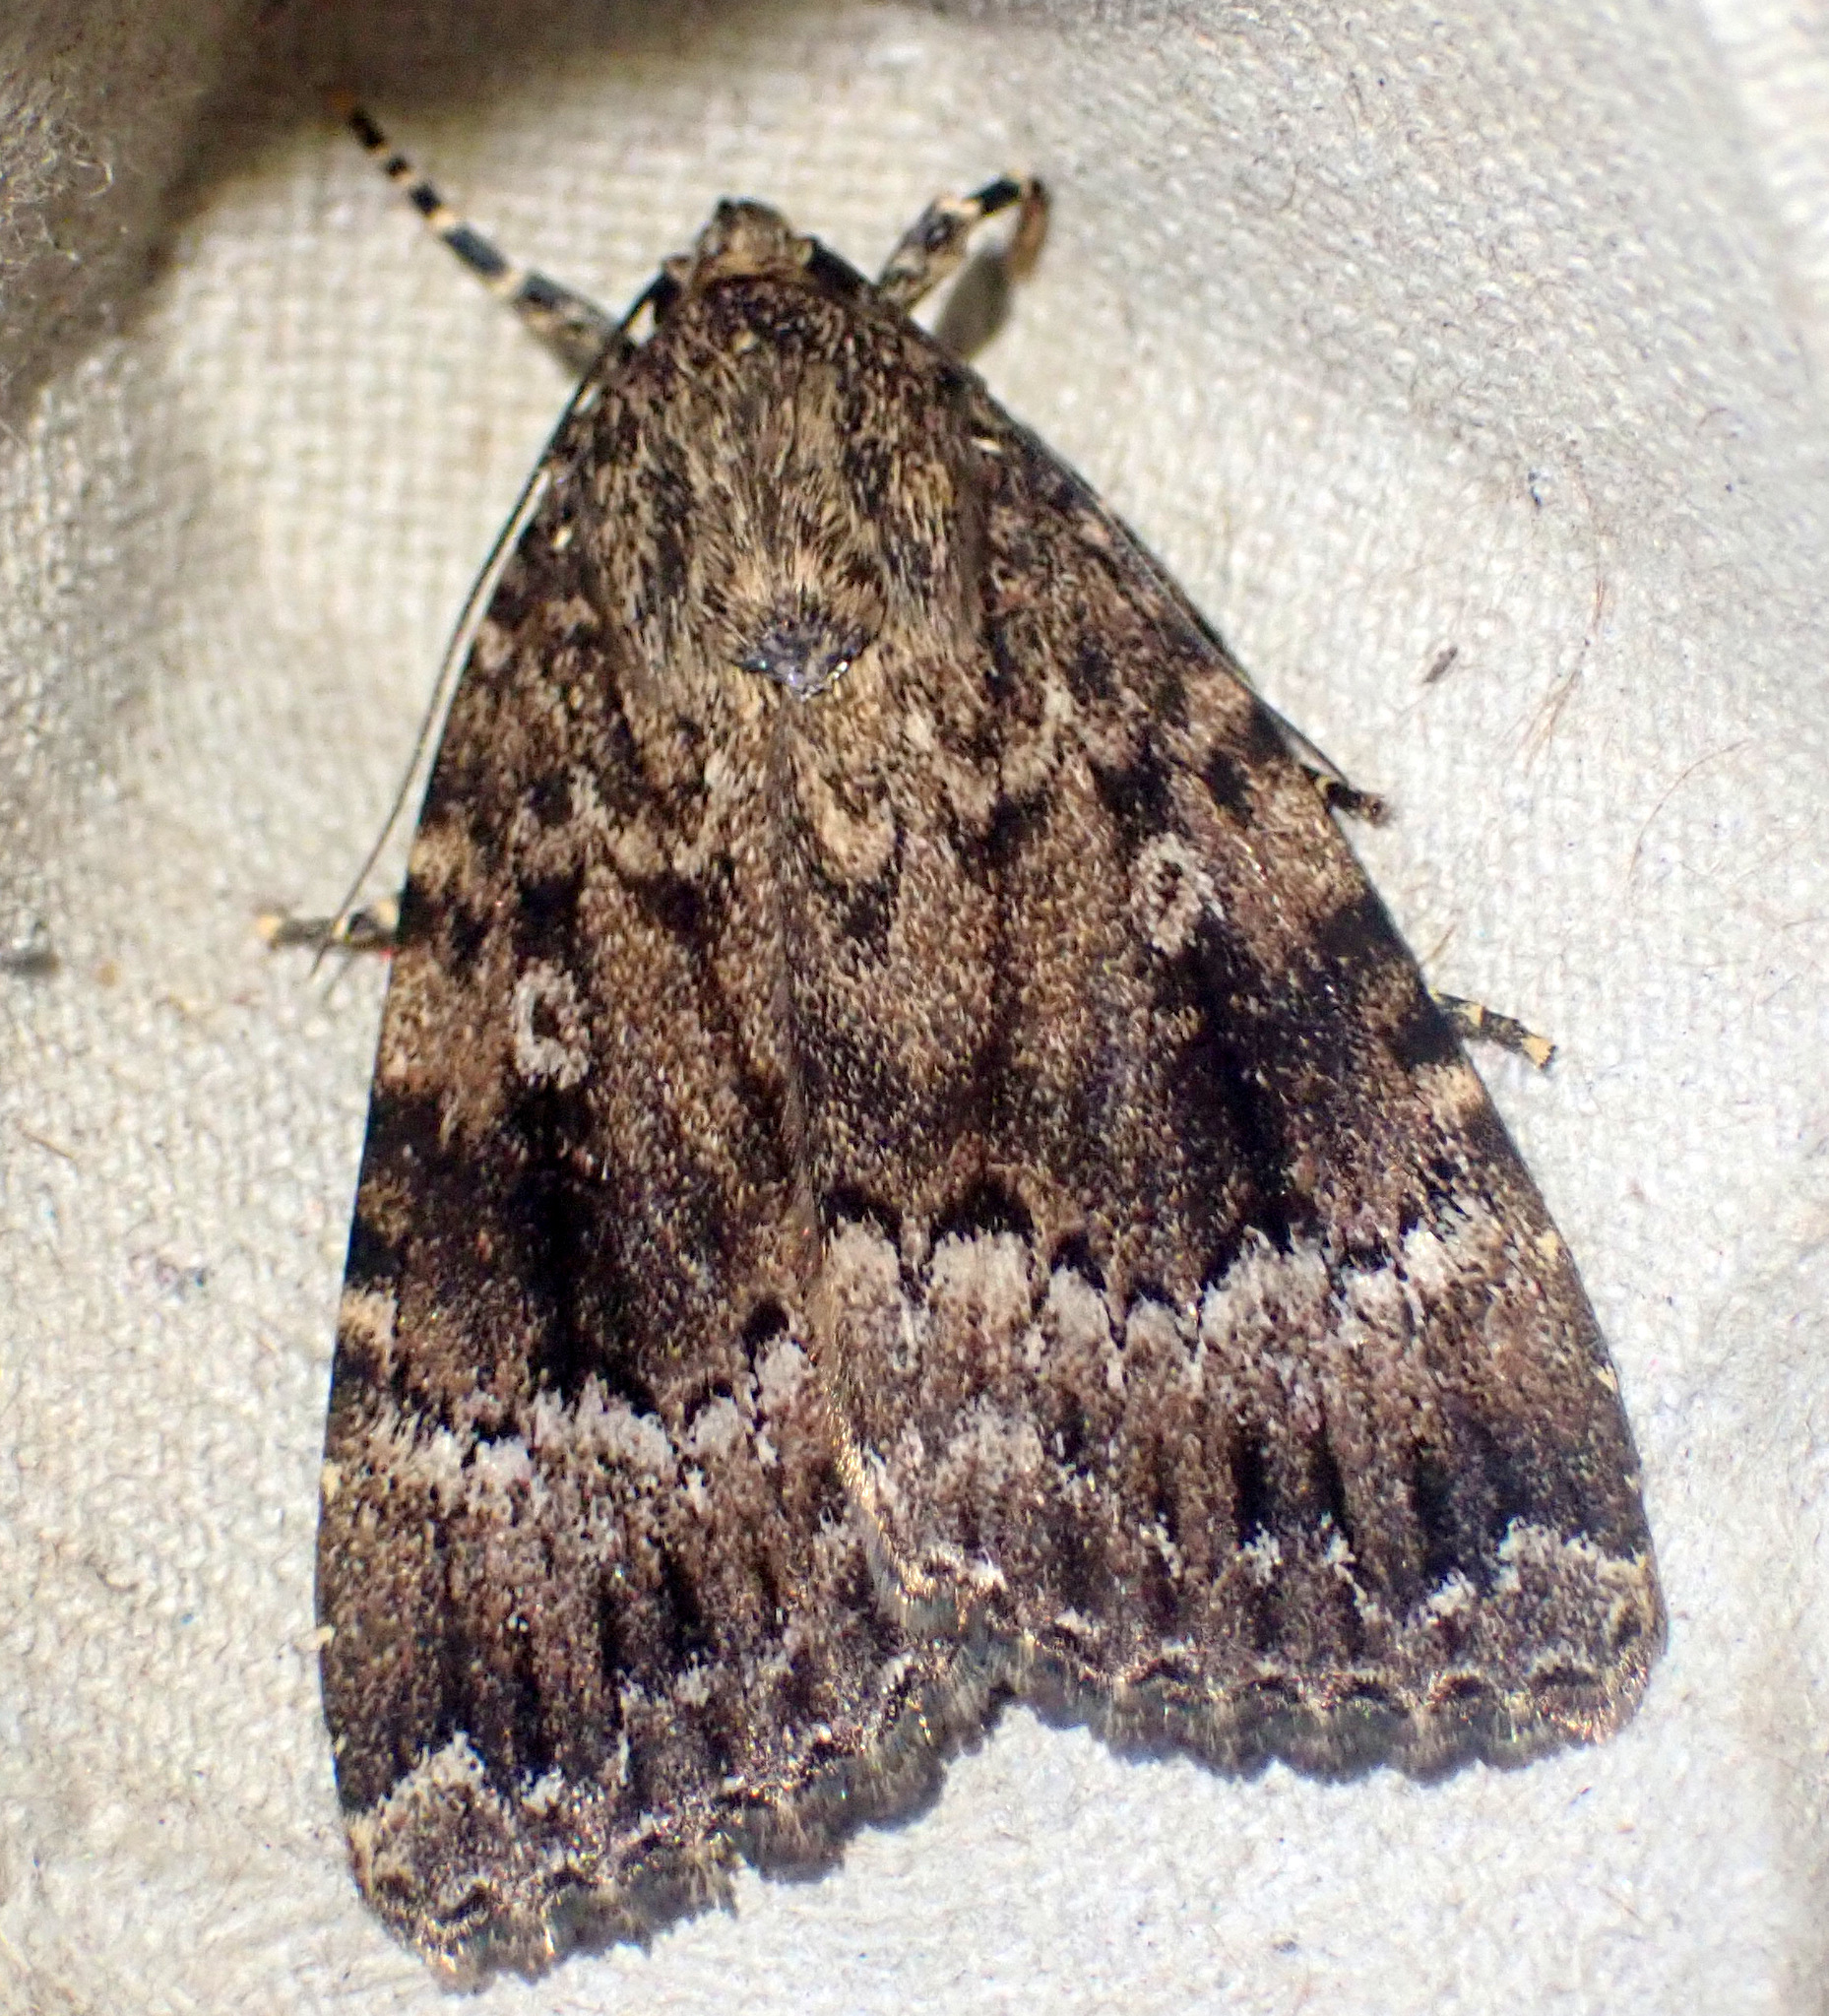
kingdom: Animalia
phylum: Arthropoda
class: Insecta
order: Lepidoptera
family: Noctuidae
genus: Amphipyra
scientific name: Amphipyra berbera
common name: Svensson's copper underwing
